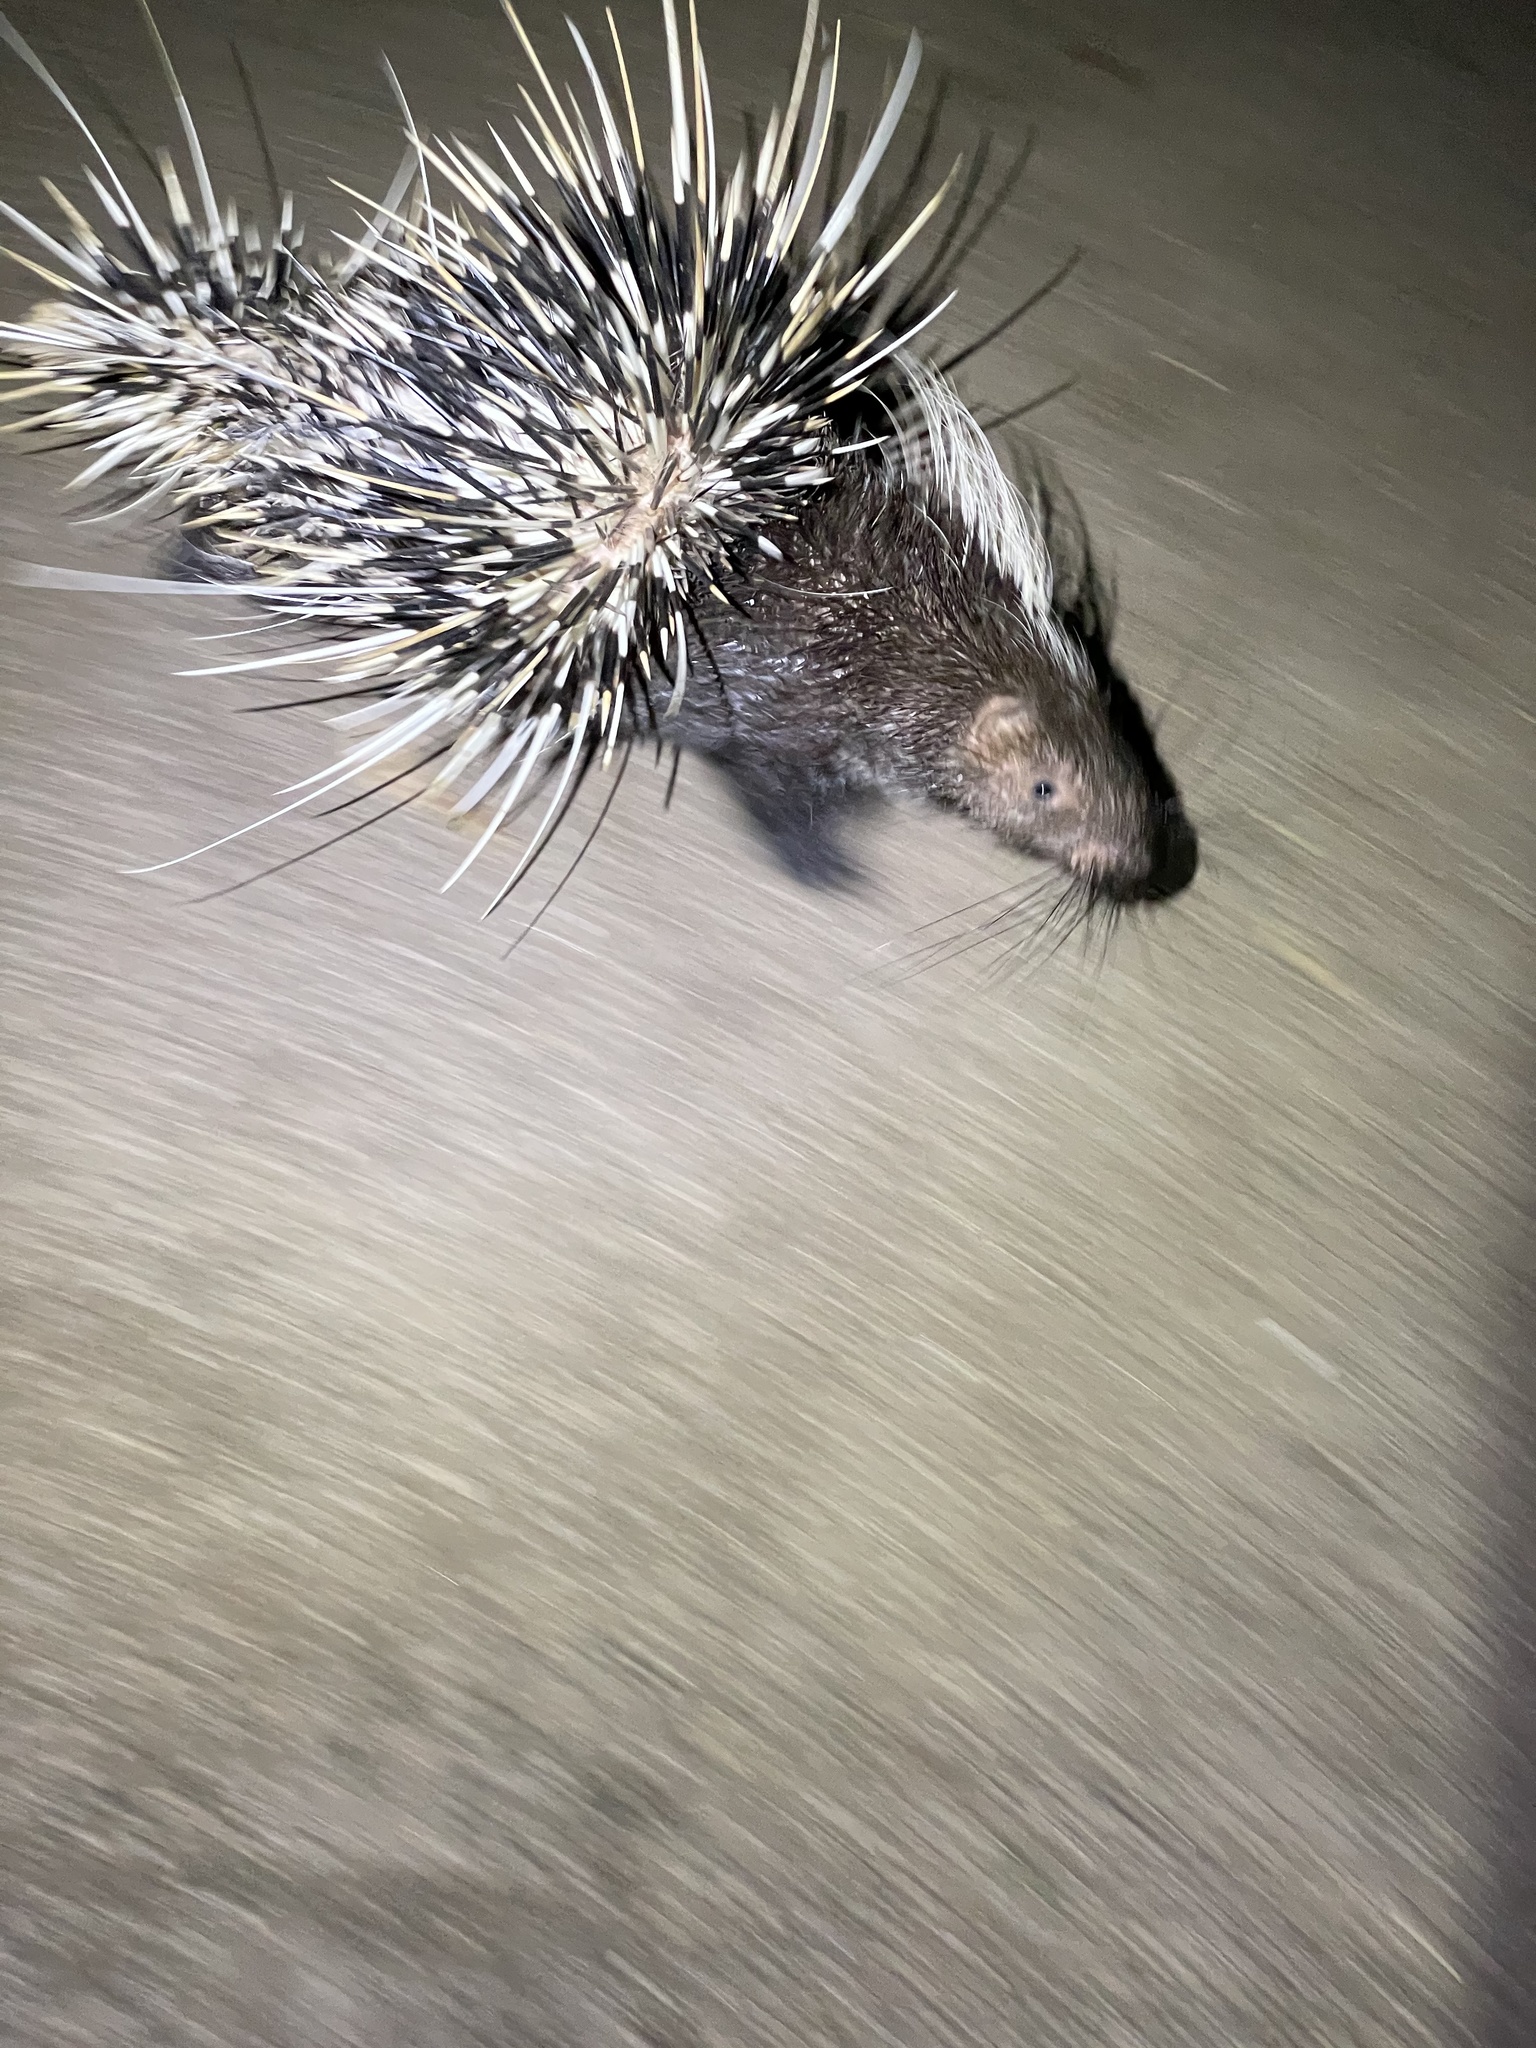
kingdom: Animalia
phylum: Chordata
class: Mammalia
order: Rodentia
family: Hystricidae
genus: Hystrix
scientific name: Hystrix brachyura
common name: Malayan porcupine
